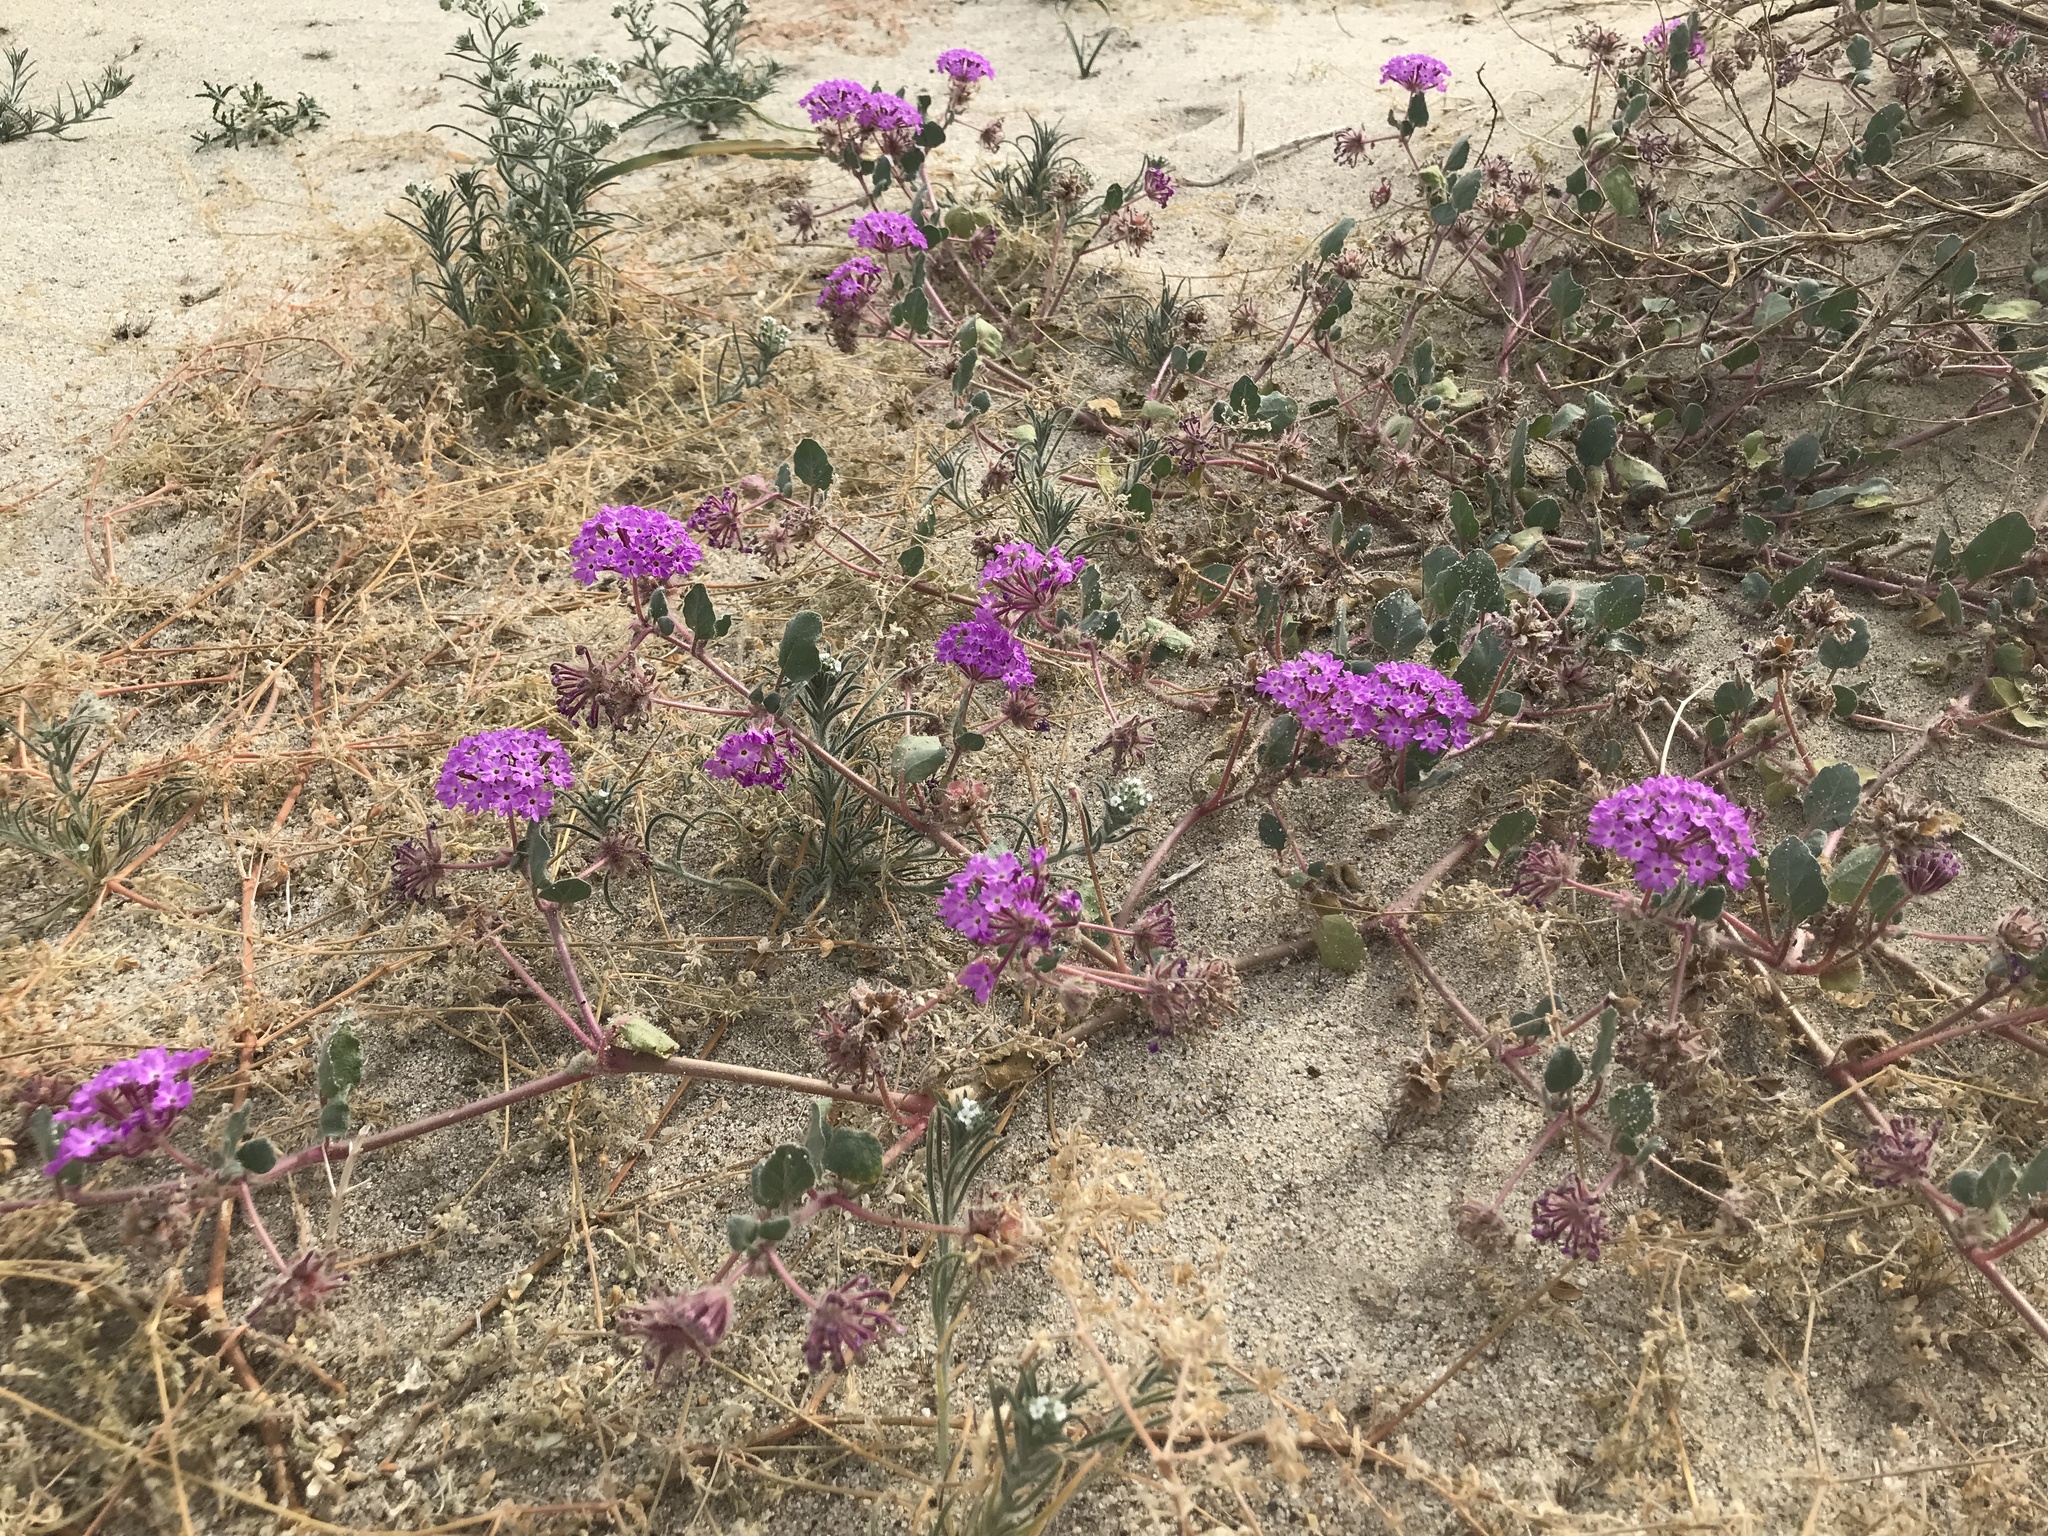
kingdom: Plantae
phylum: Tracheophyta
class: Magnoliopsida
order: Caryophyllales
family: Nyctaginaceae
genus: Abronia
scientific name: Abronia villosa
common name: Desert sand-verbena
